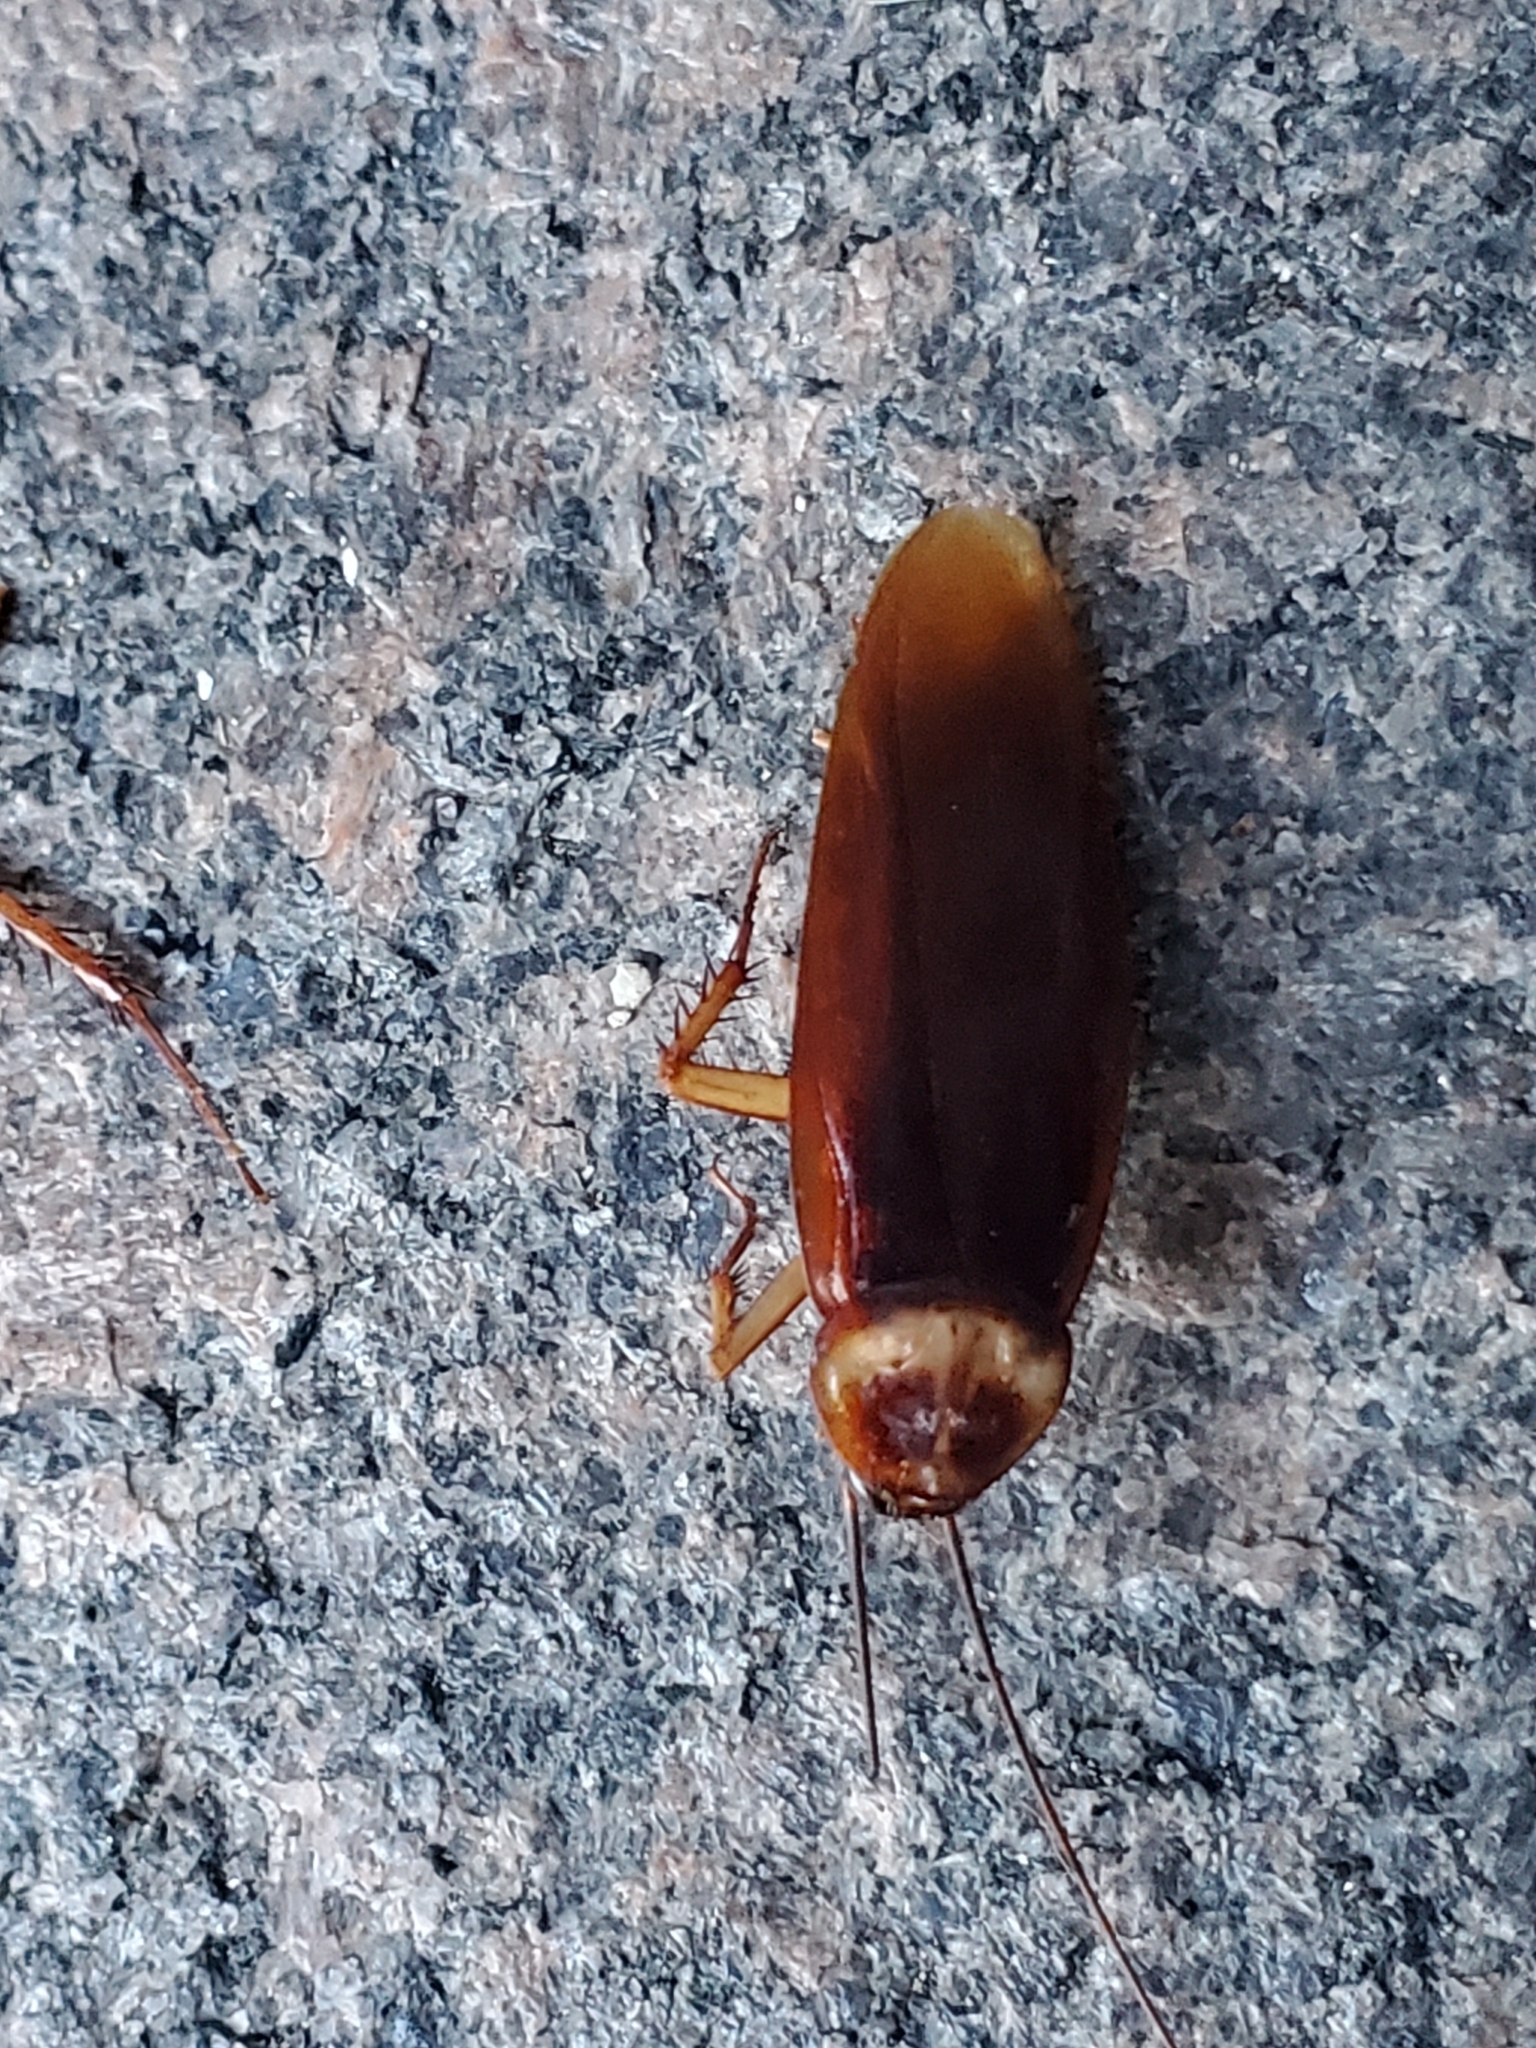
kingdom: Animalia
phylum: Arthropoda
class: Insecta
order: Blattodea
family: Blattidae
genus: Periplaneta
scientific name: Periplaneta americana
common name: American cockroach
